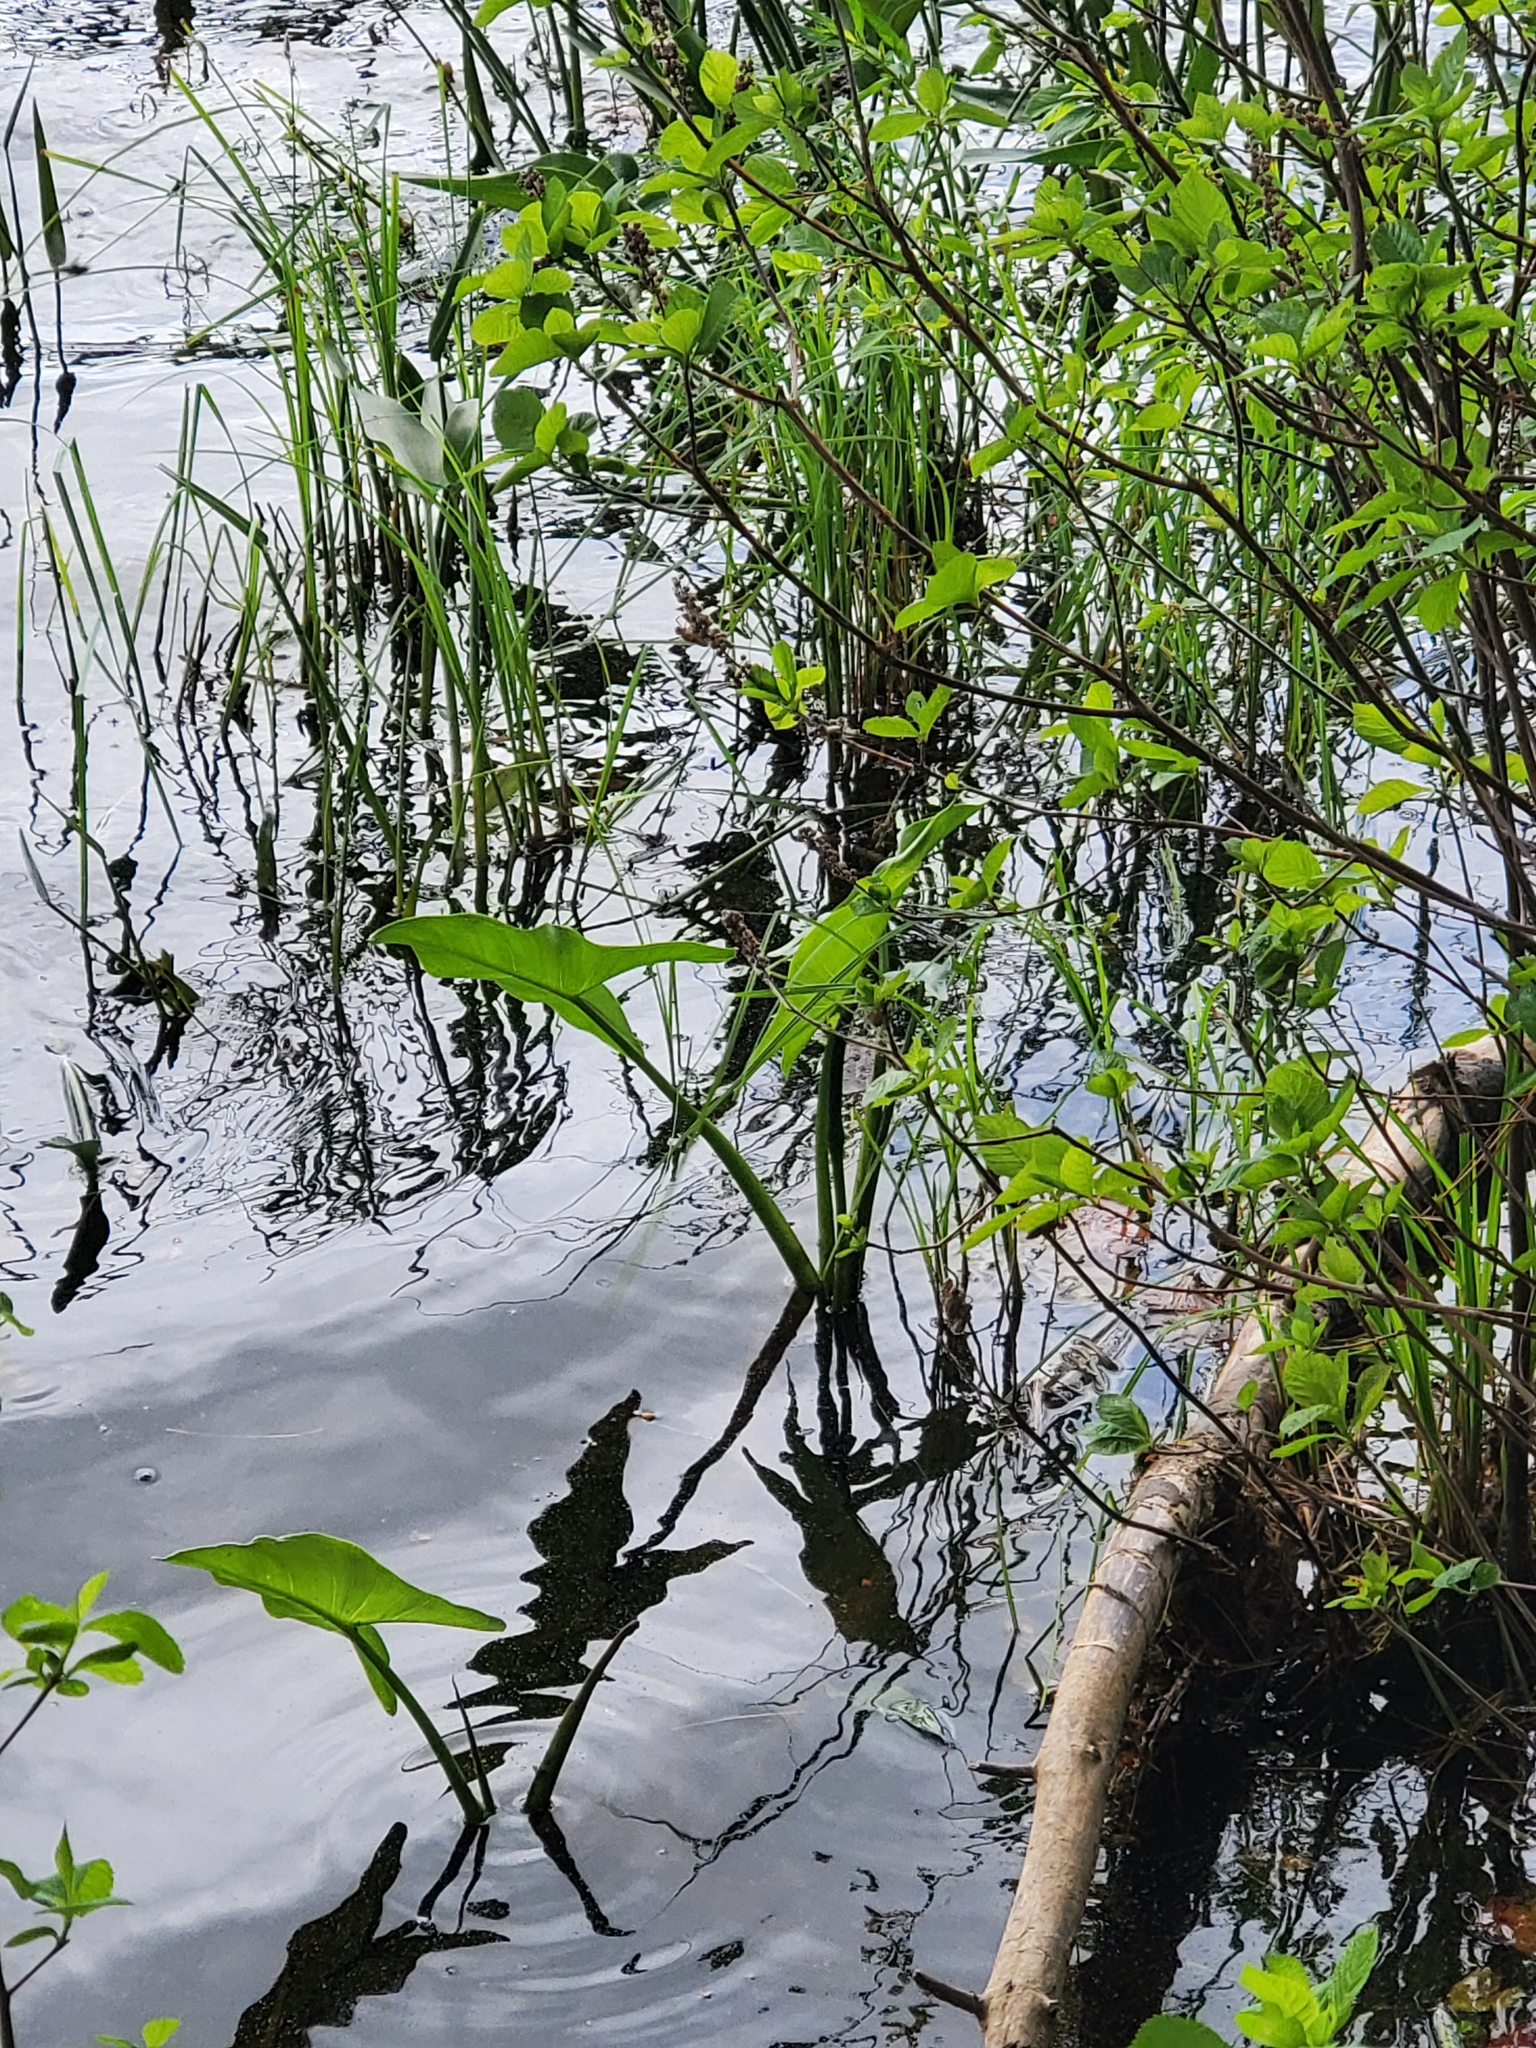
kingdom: Plantae
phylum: Tracheophyta
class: Liliopsida
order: Alismatales
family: Araceae
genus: Peltandra
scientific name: Peltandra virginica
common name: Arrow arum
